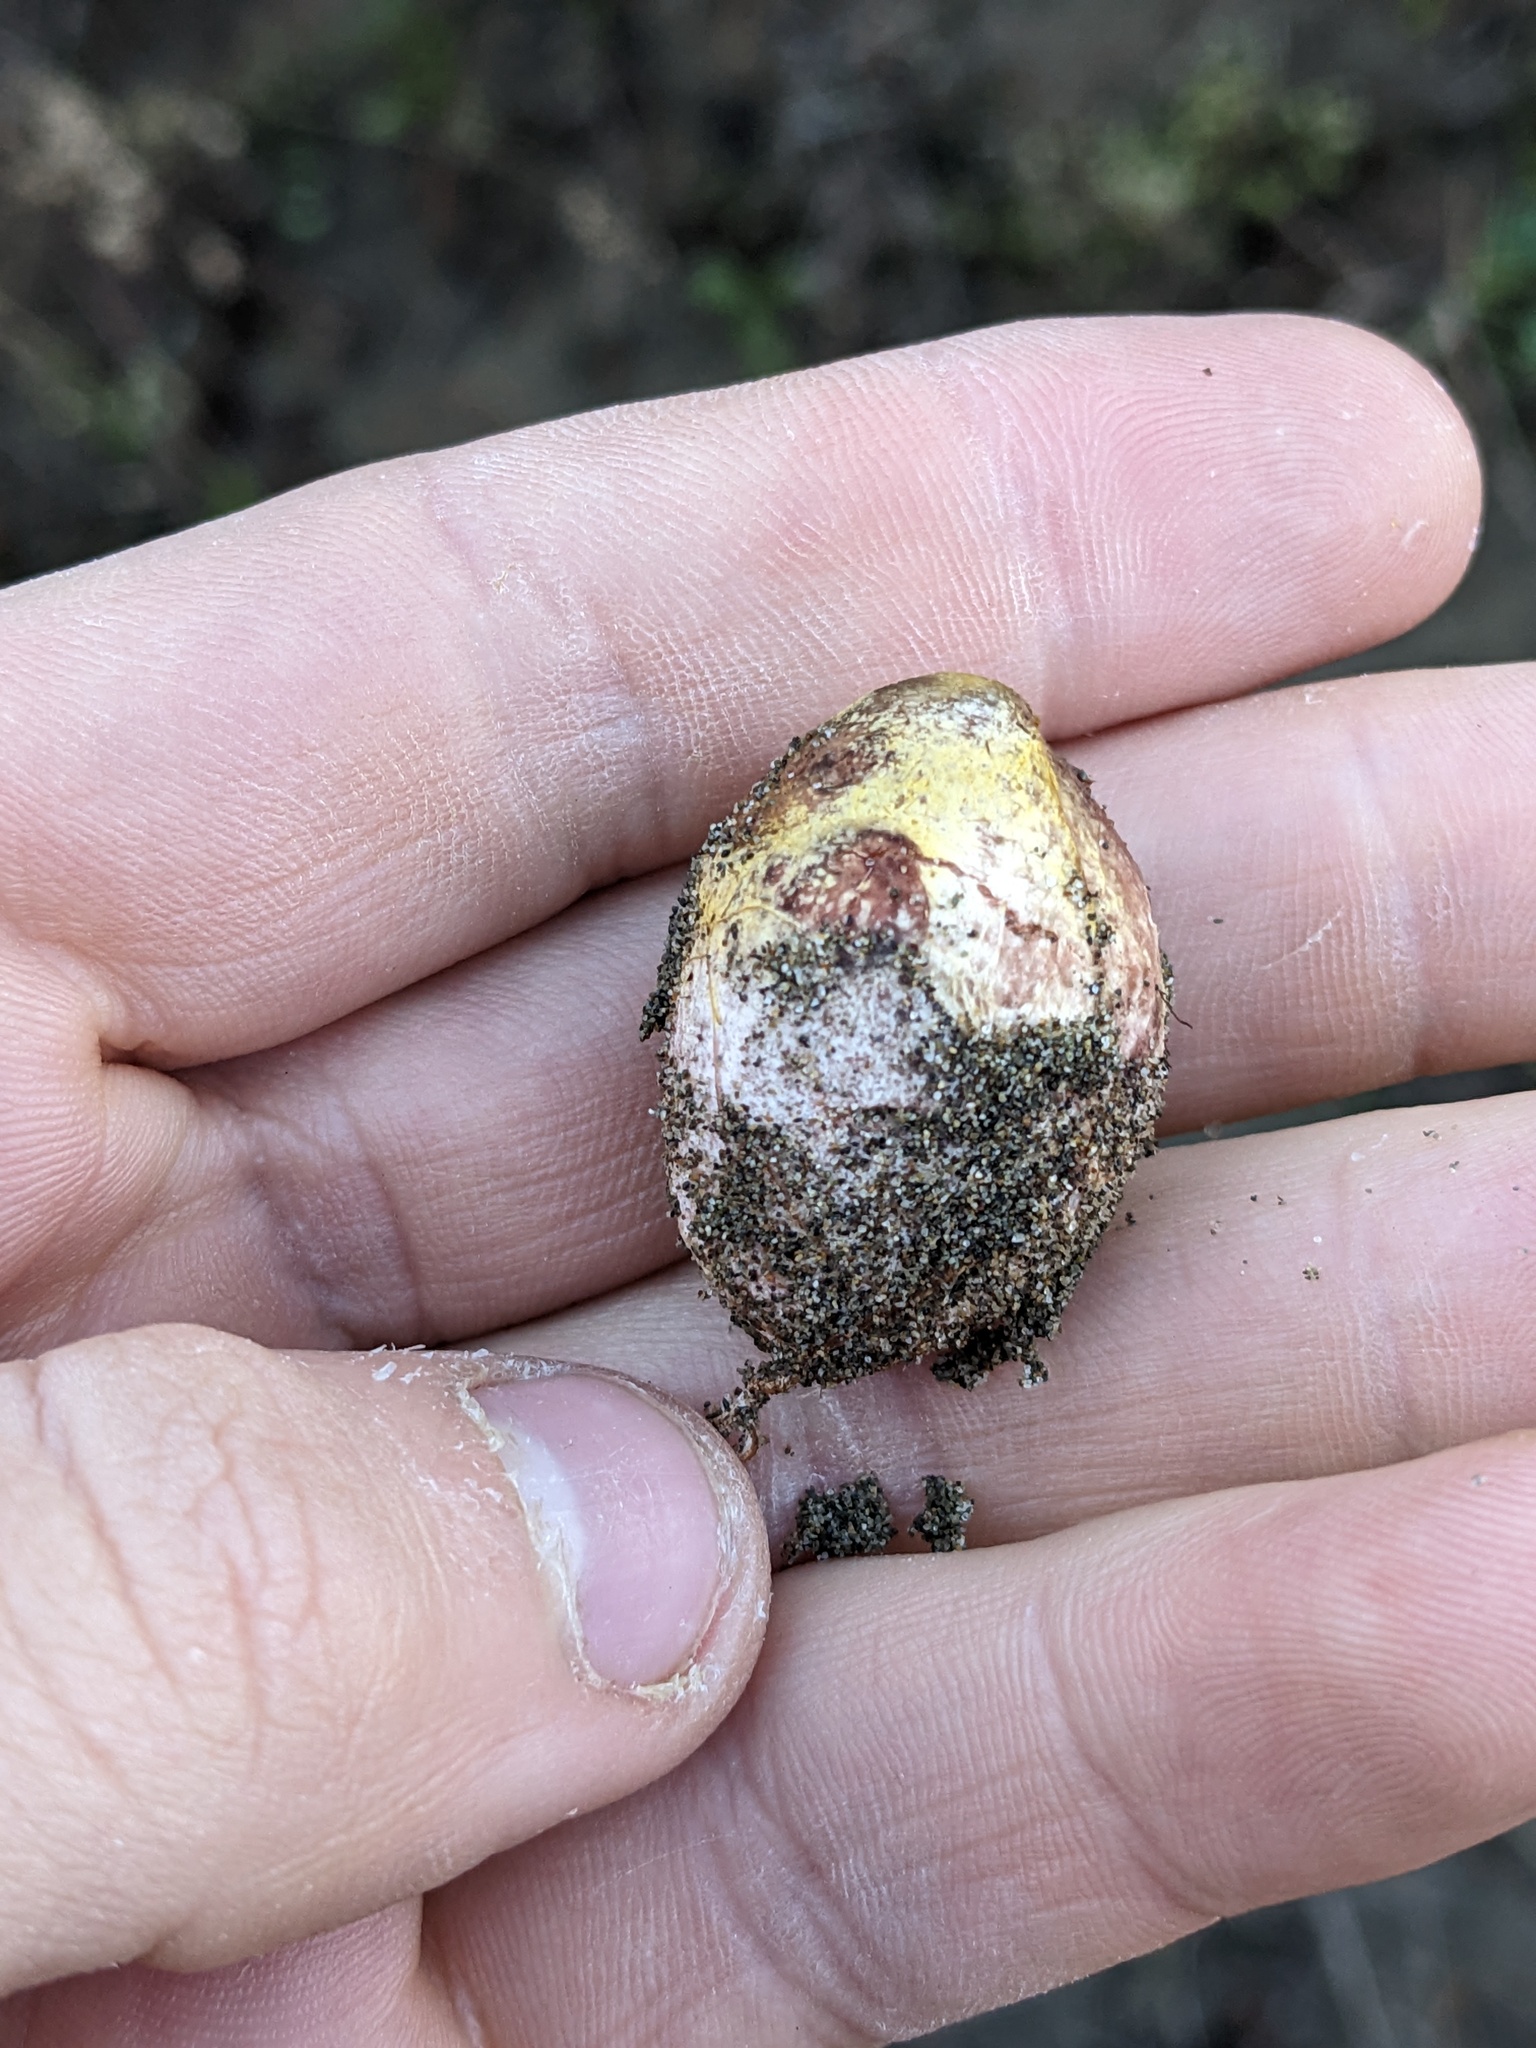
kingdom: Fungi
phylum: Basidiomycota
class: Agaricomycetes
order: Boletales
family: Rhizopogonaceae
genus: Rhizopogon
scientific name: Rhizopogon occidentalis
